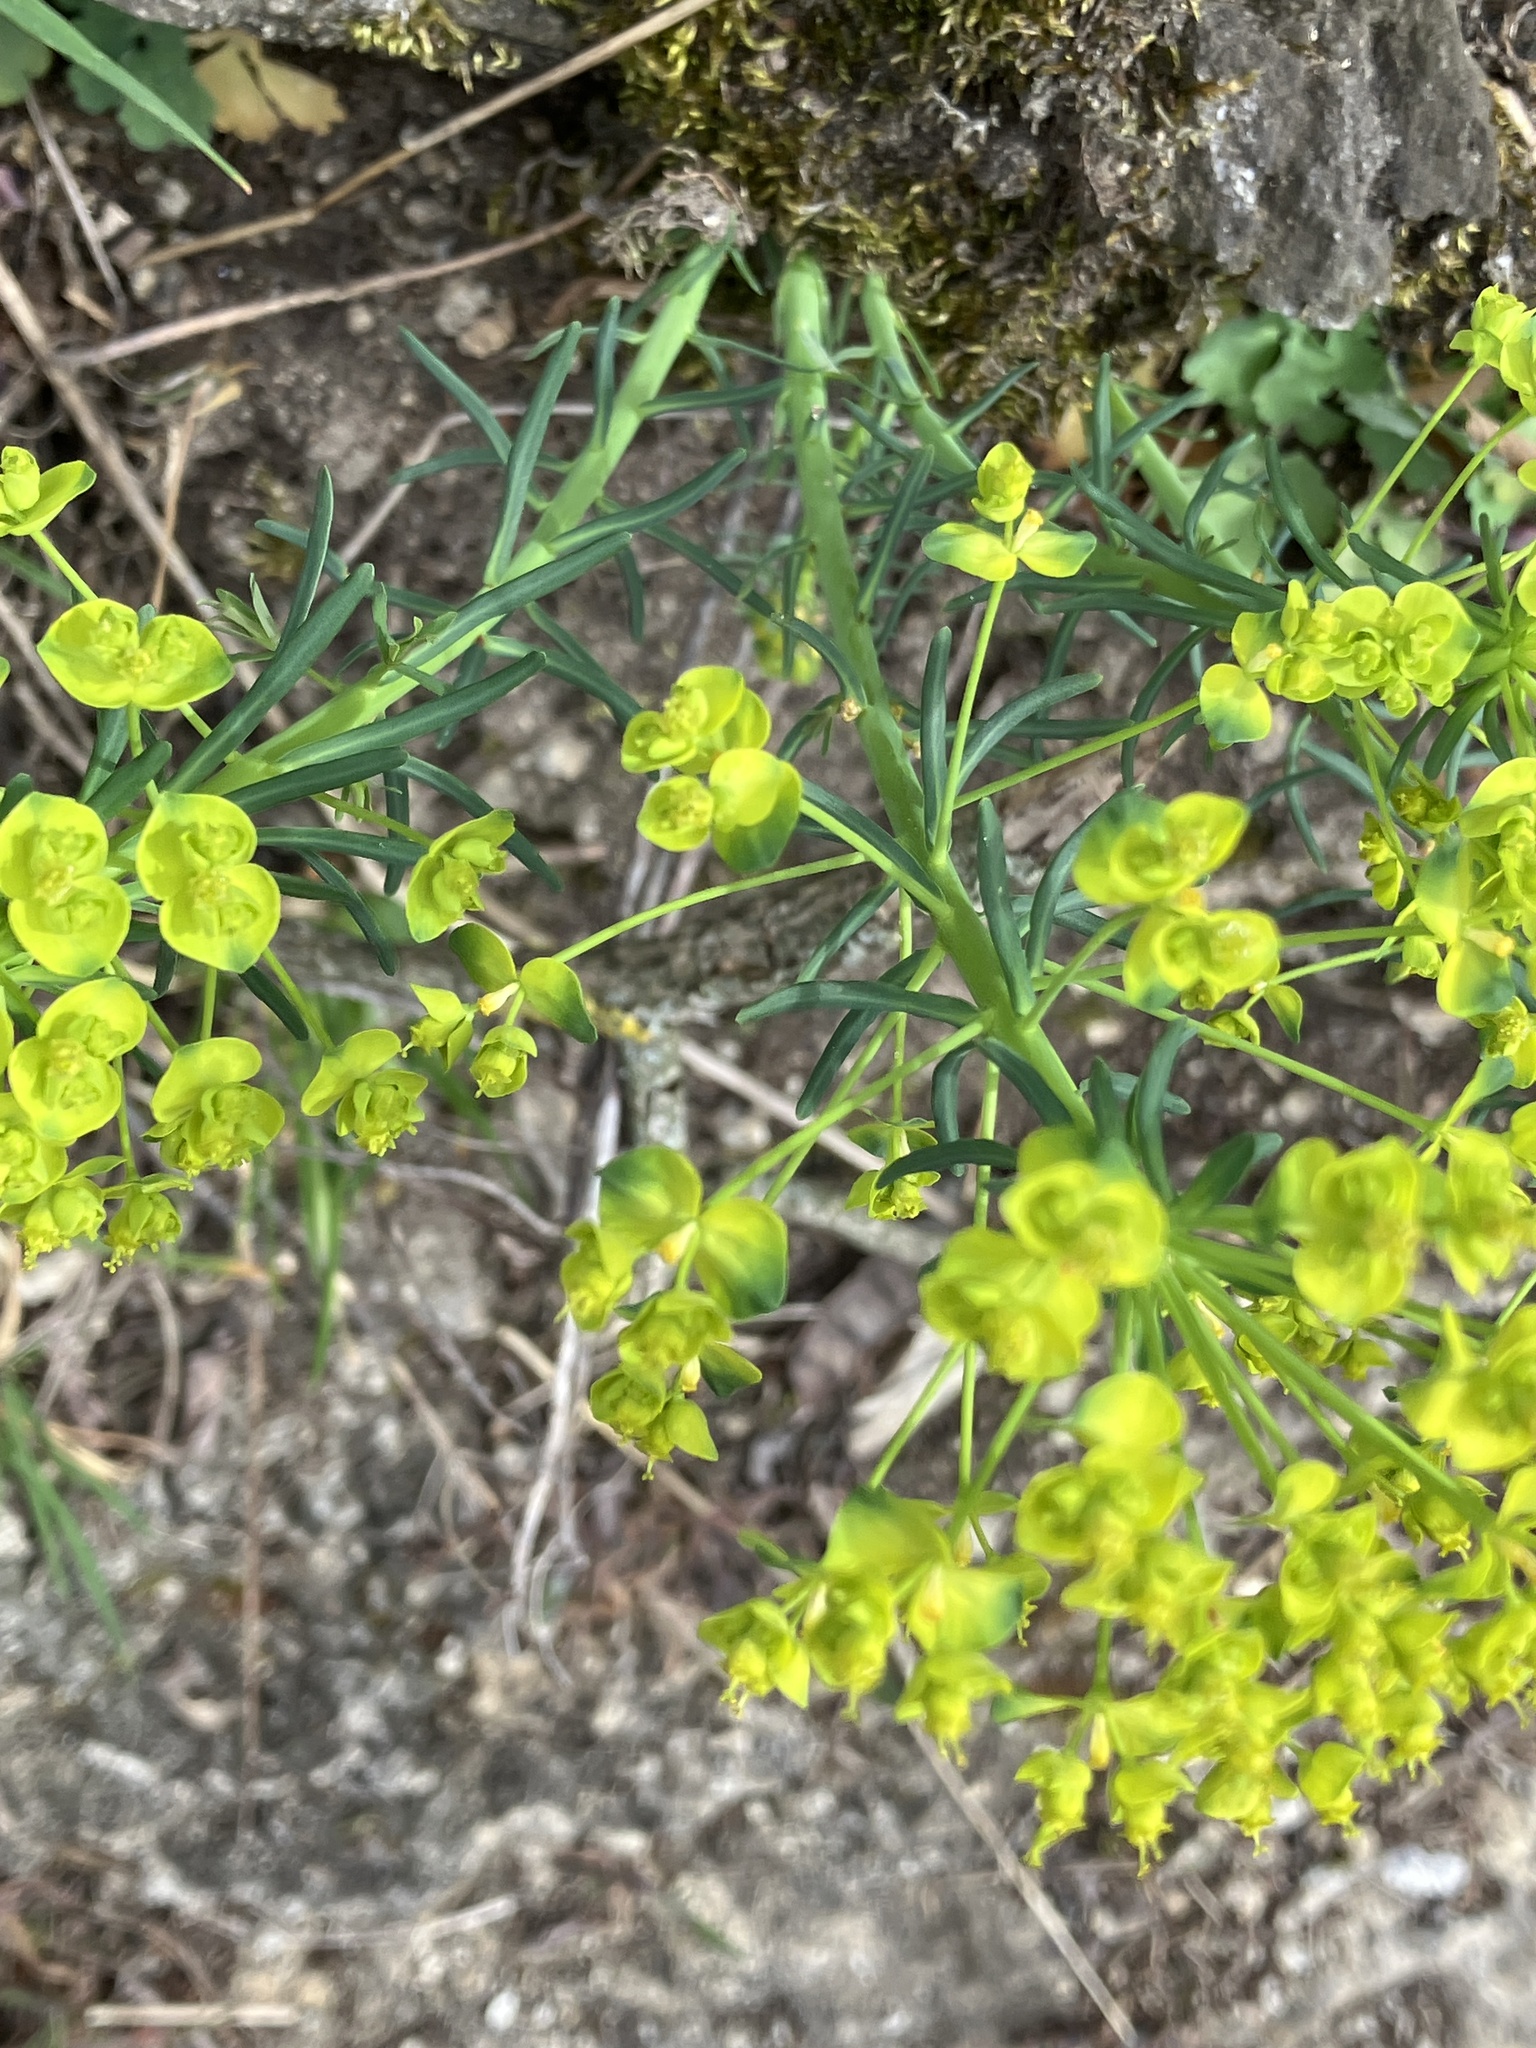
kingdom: Plantae
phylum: Tracheophyta
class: Magnoliopsida
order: Malpighiales
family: Euphorbiaceae
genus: Euphorbia
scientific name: Euphorbia cyparissias
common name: Cypress spurge
